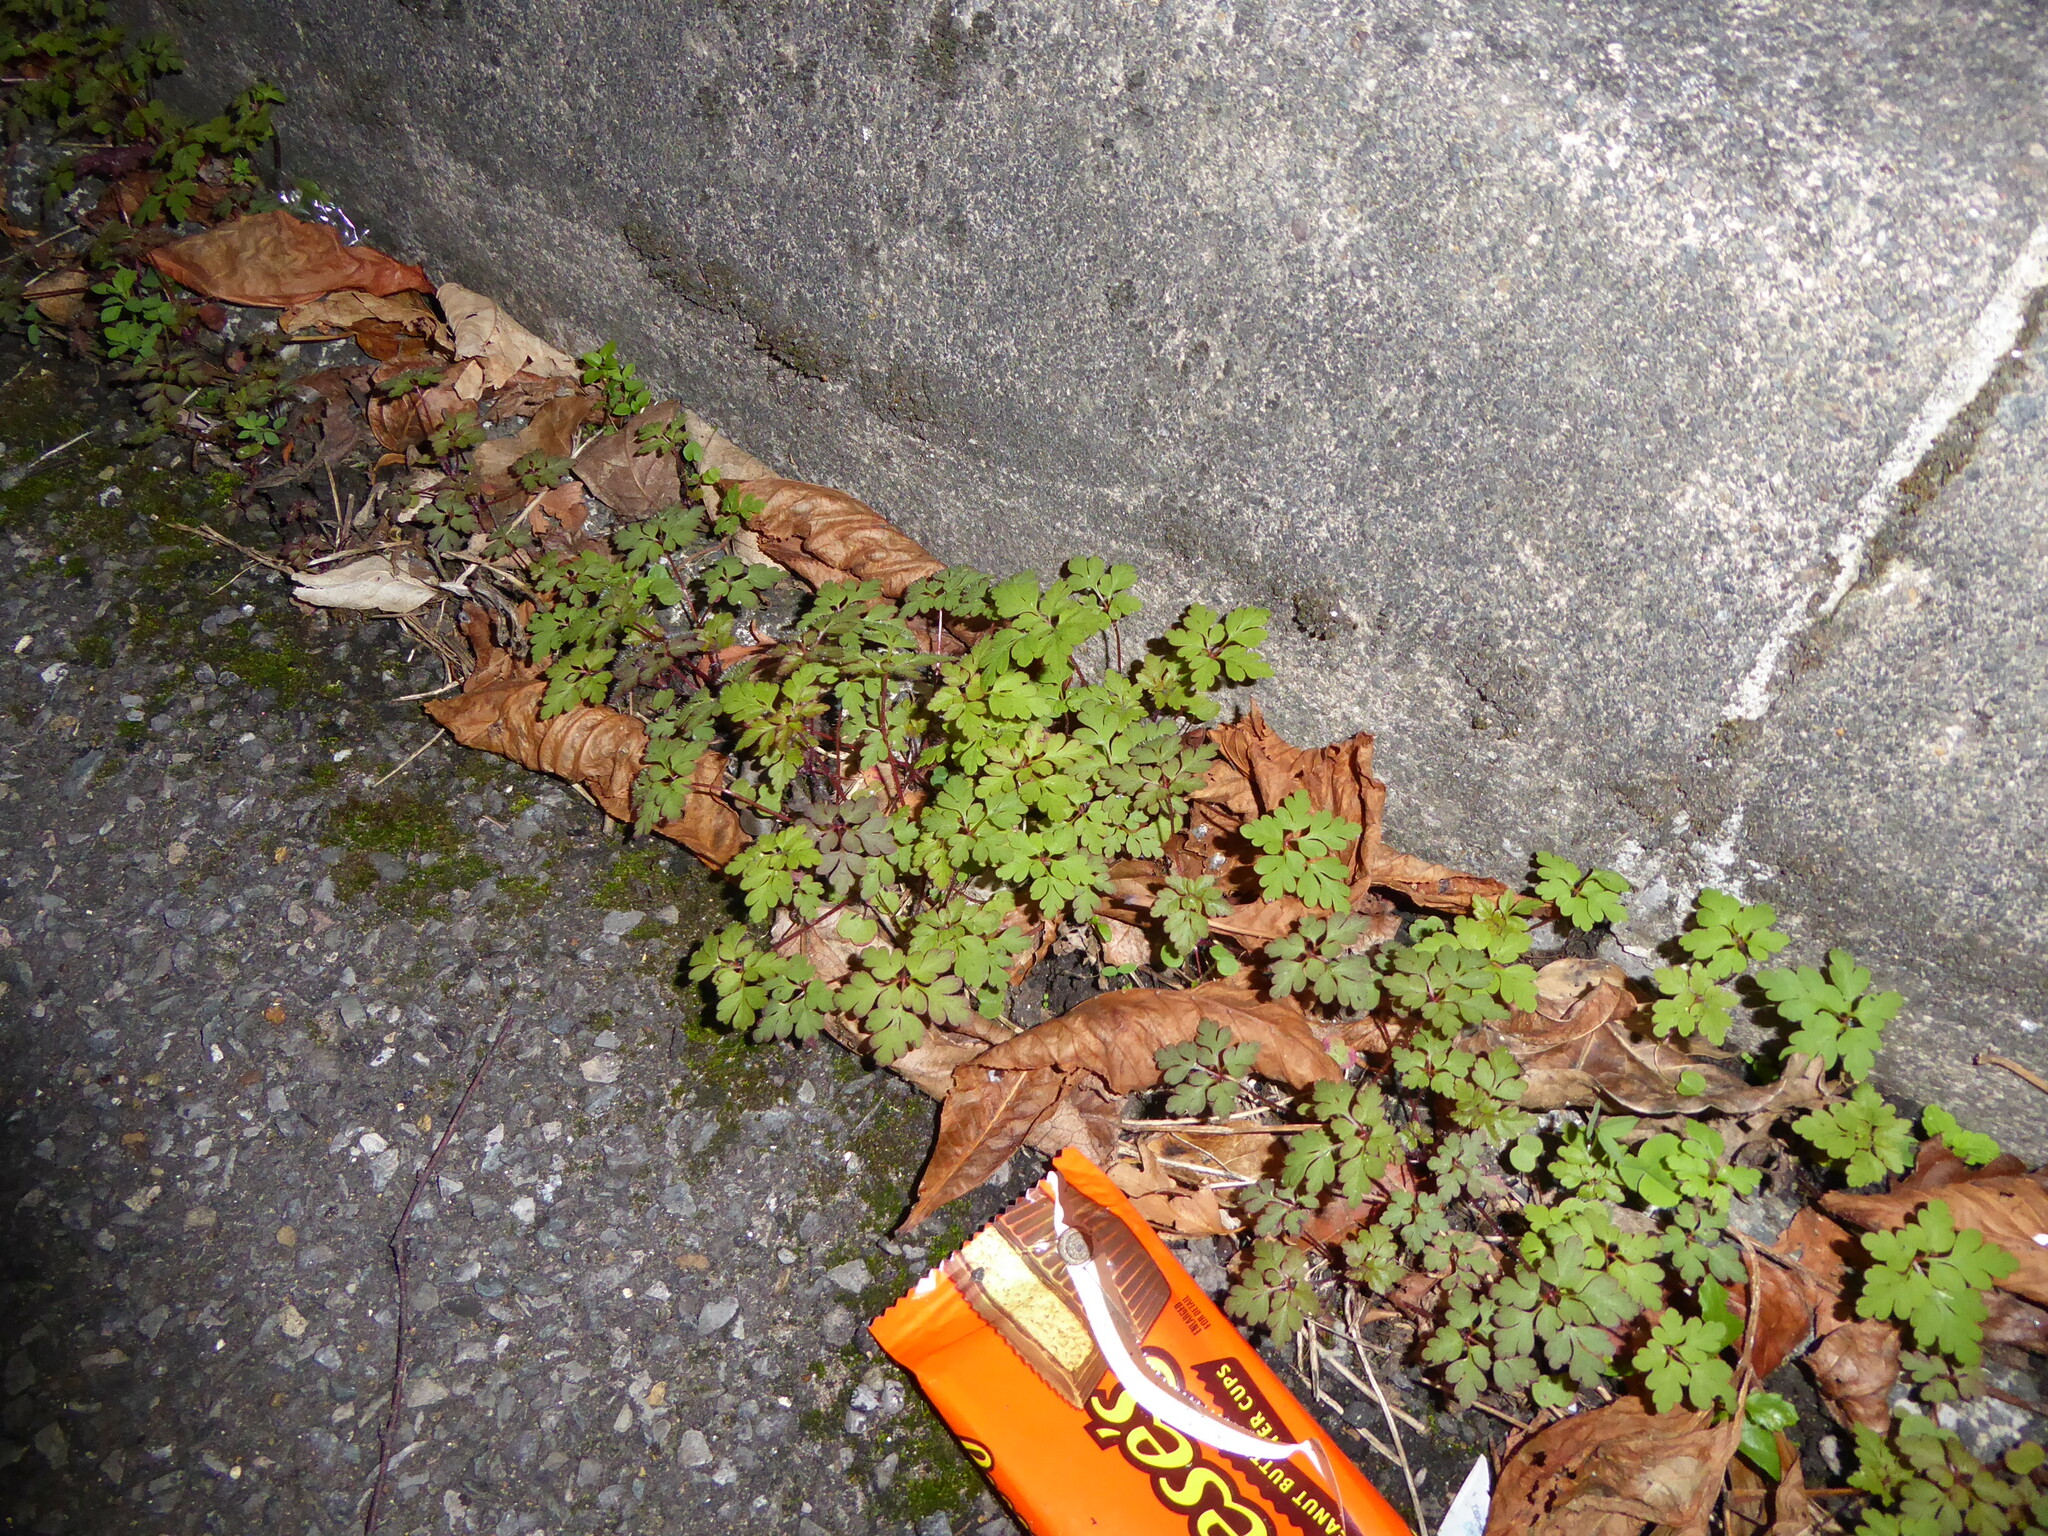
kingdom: Plantae
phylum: Tracheophyta
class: Magnoliopsida
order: Geraniales
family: Geraniaceae
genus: Geranium
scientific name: Geranium robertianum
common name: Herb-robert
